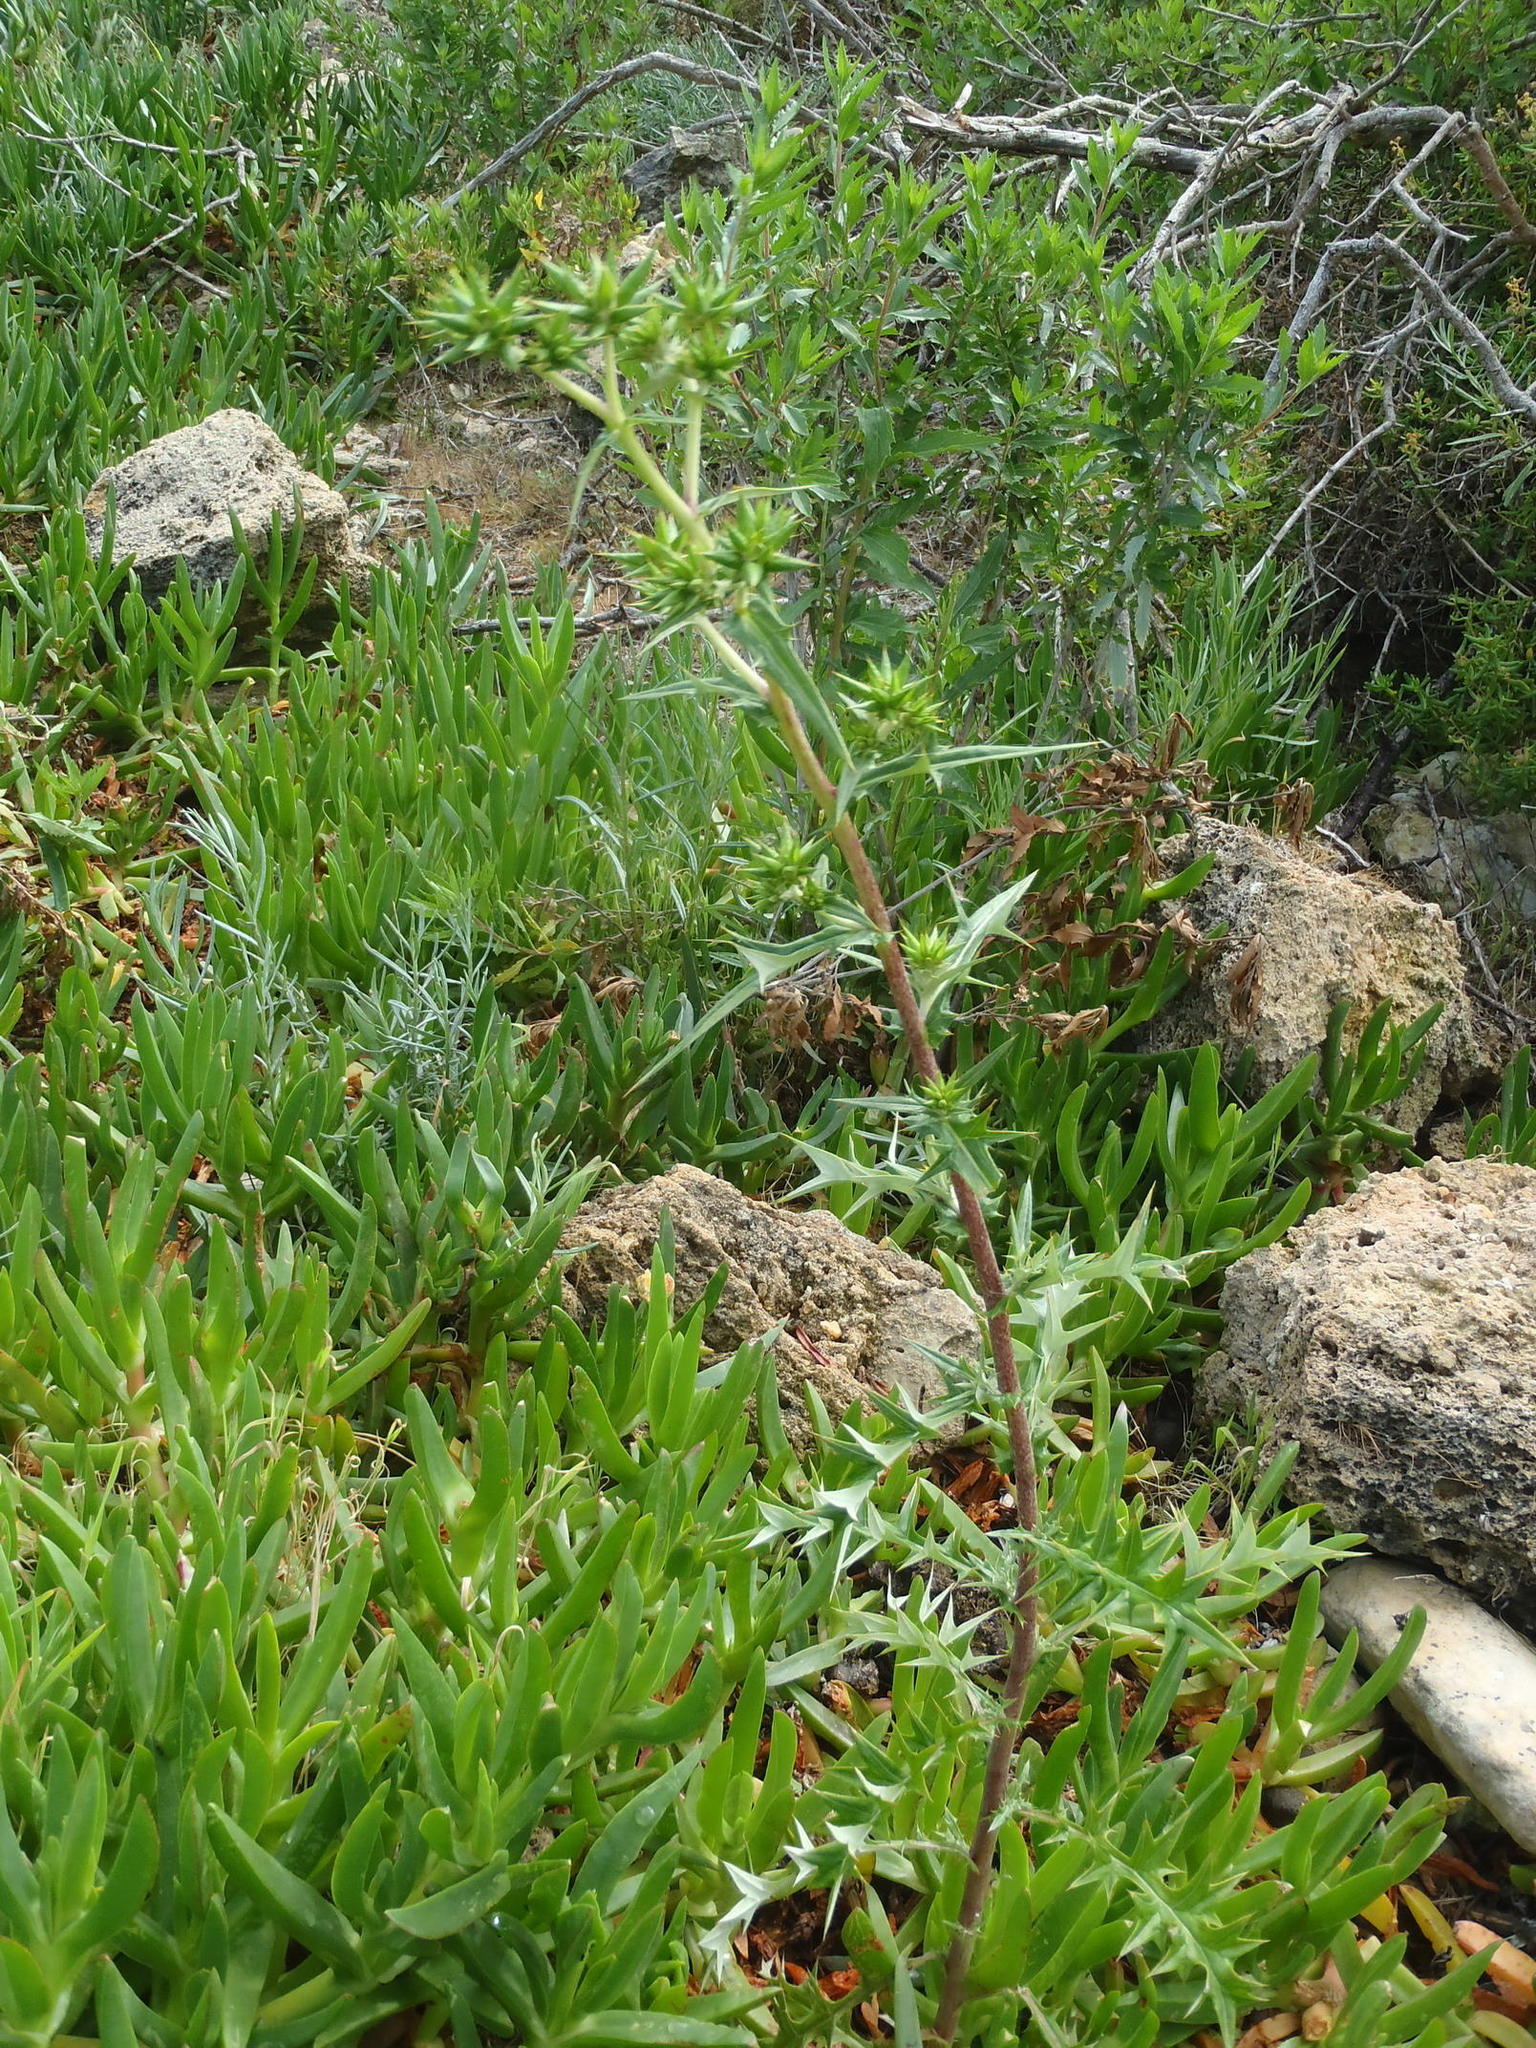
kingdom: Plantae
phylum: Tracheophyta
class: Magnoliopsida
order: Asterales
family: Asteraceae
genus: Berkheya
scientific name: Berkheya rigida
